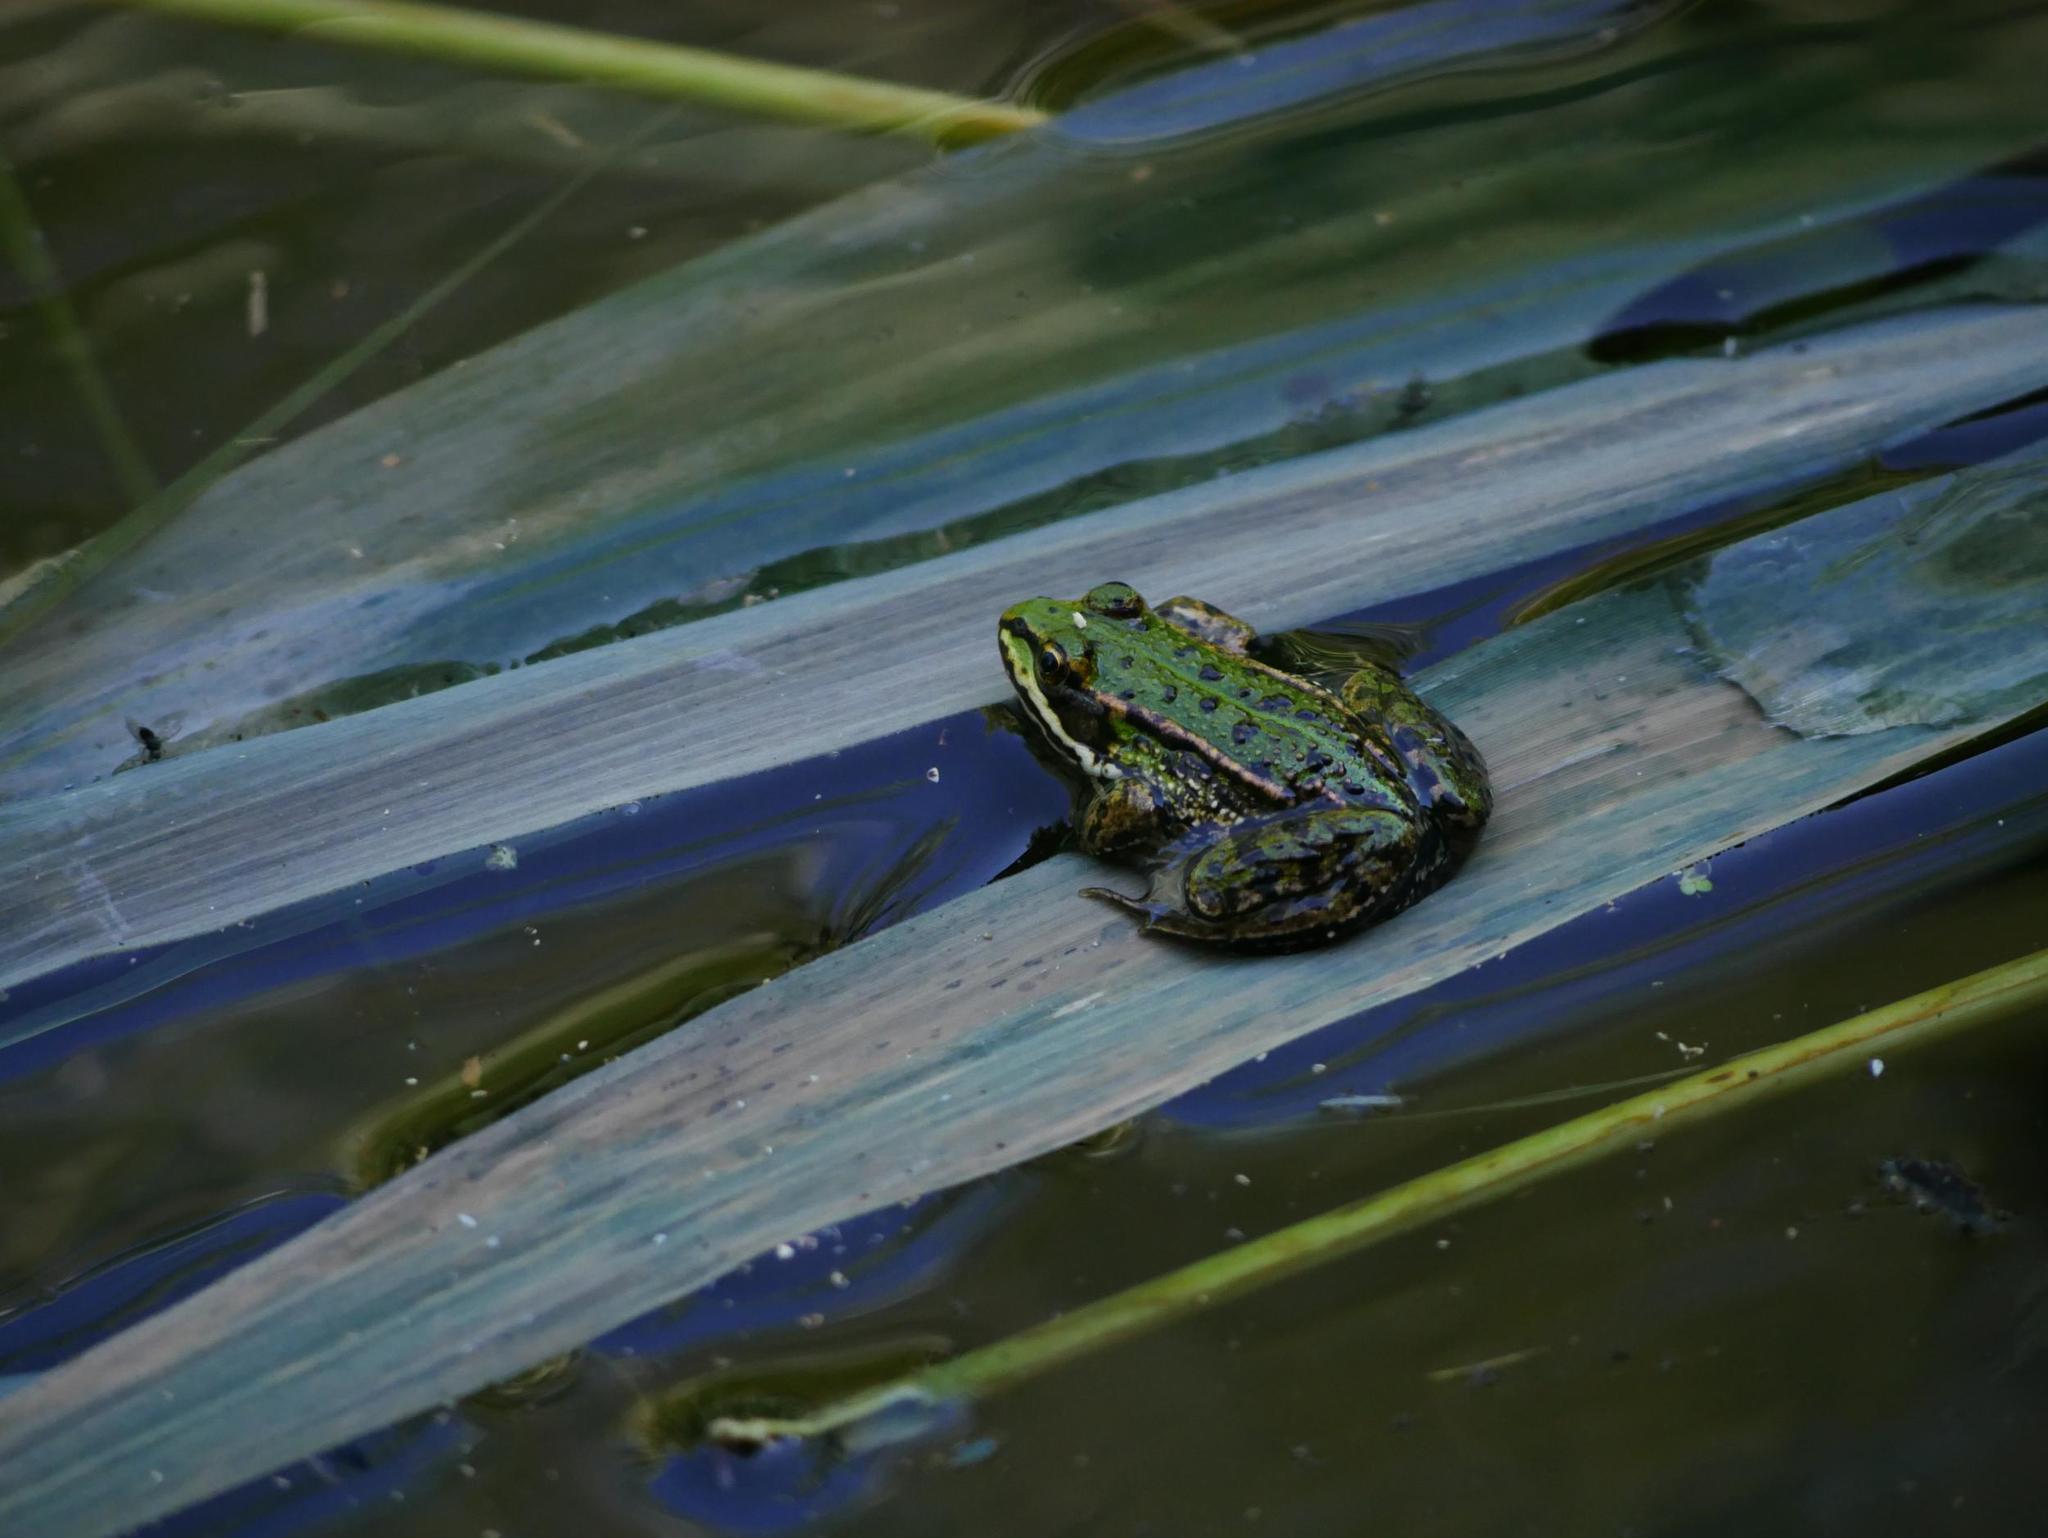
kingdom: Animalia
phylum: Chordata
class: Amphibia
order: Anura
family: Ranidae
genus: Pelophylax
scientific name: Pelophylax
